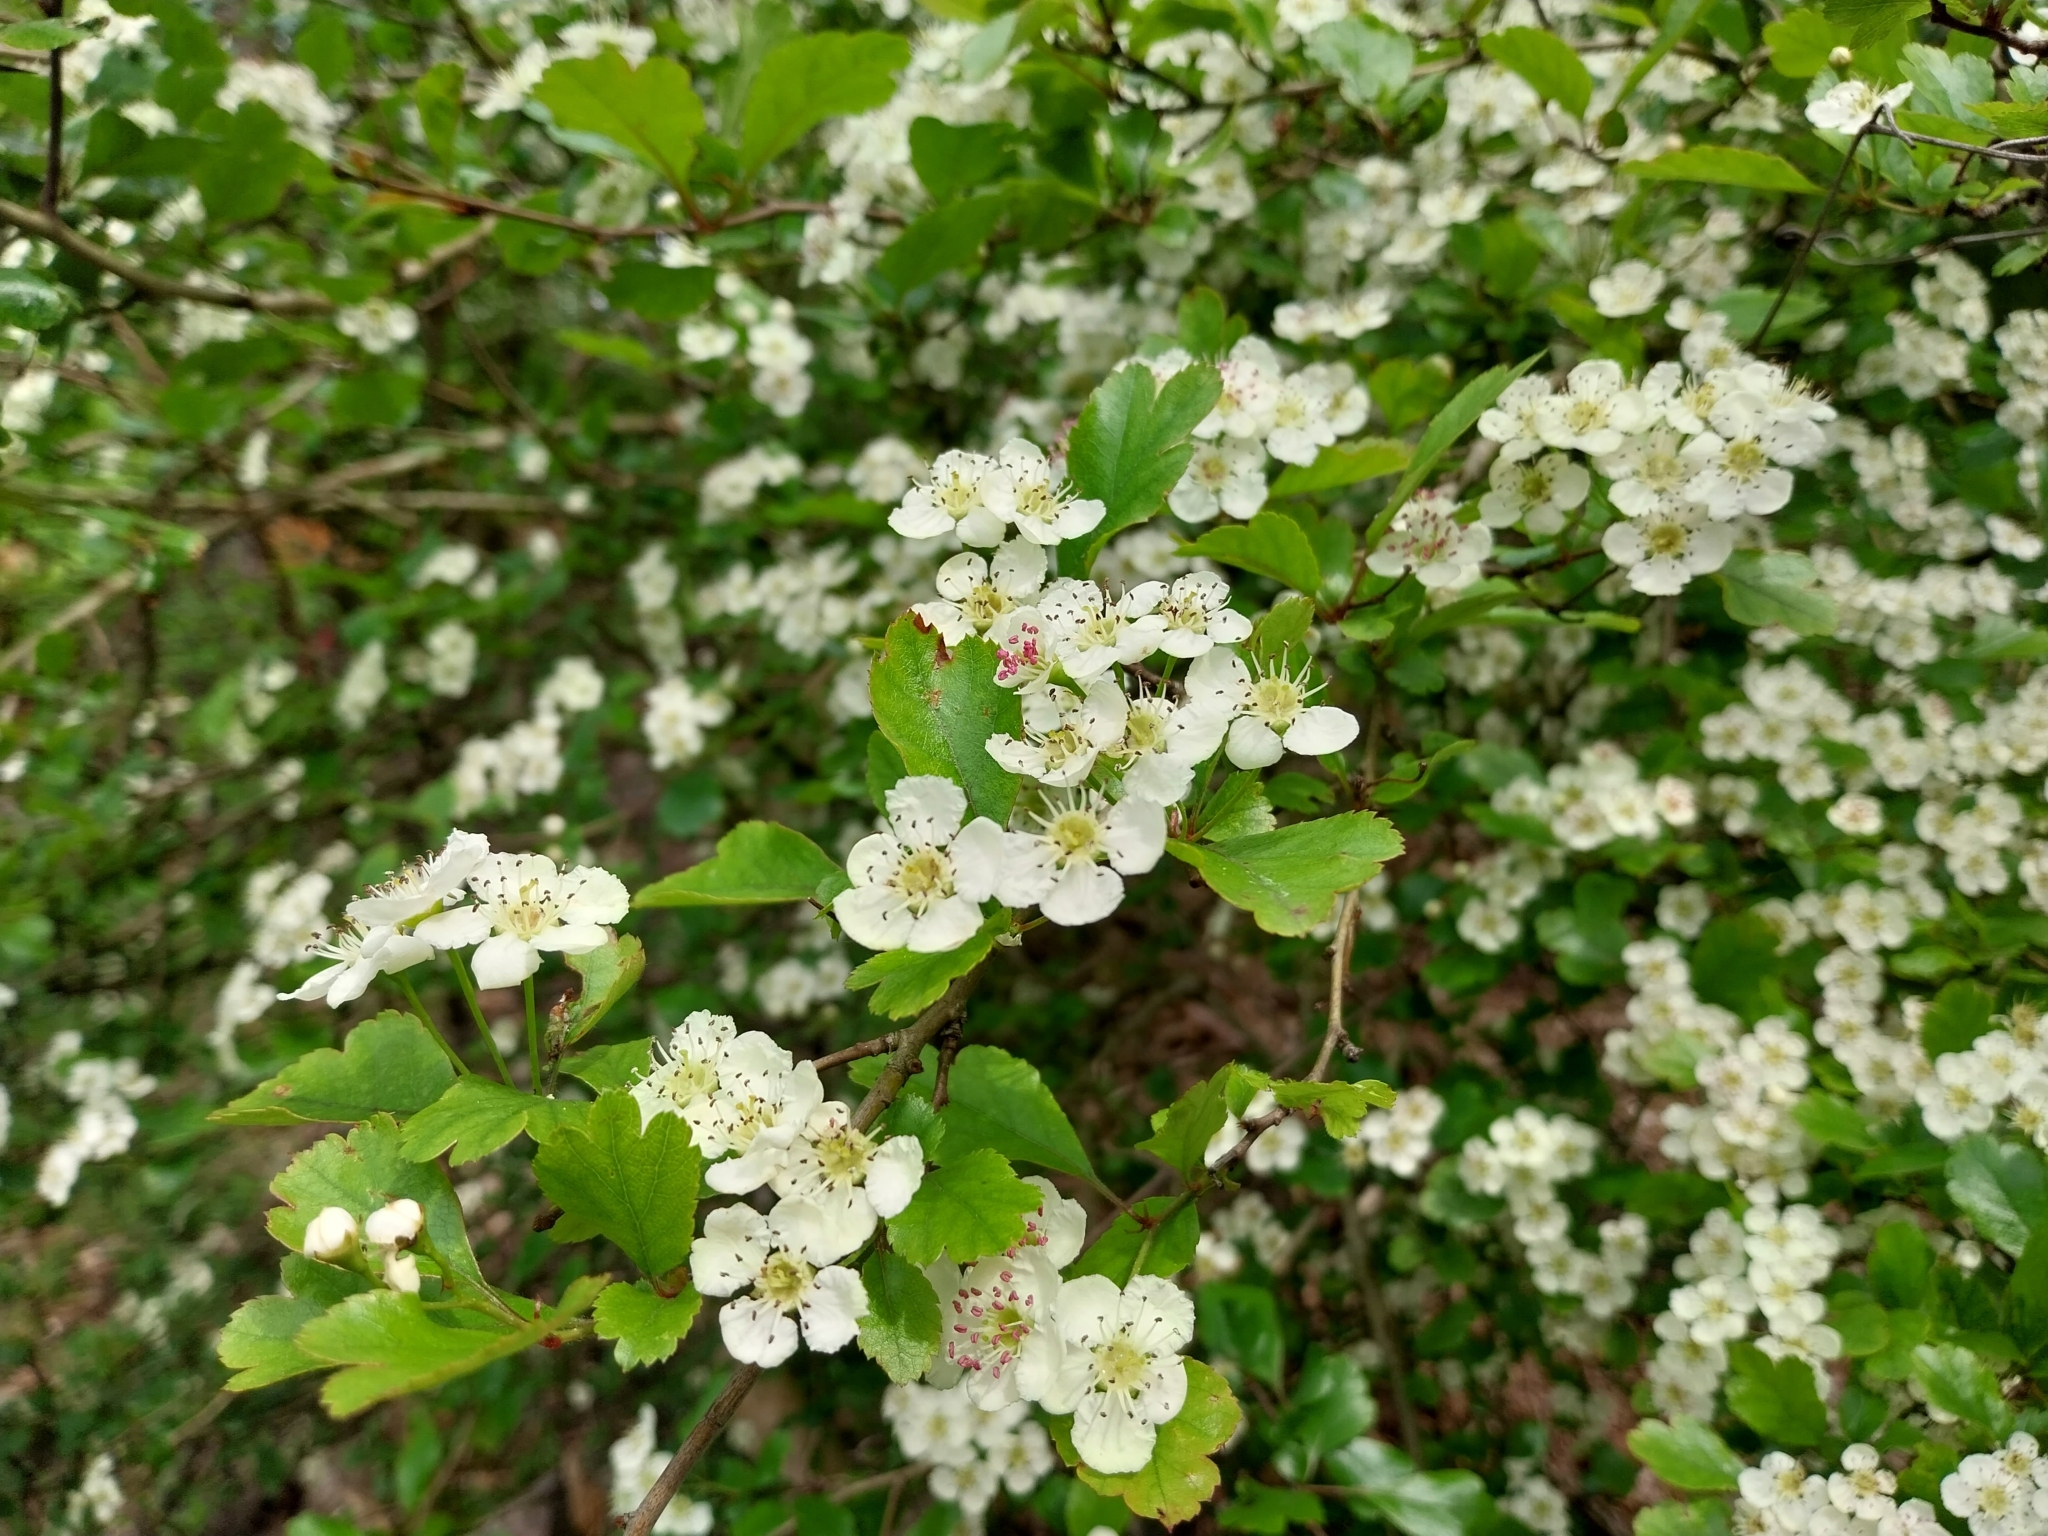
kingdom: Plantae
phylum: Tracheophyta
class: Magnoliopsida
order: Rosales
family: Rosaceae
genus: Crataegus
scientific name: Crataegus laevigata
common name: Midland hawthorn
